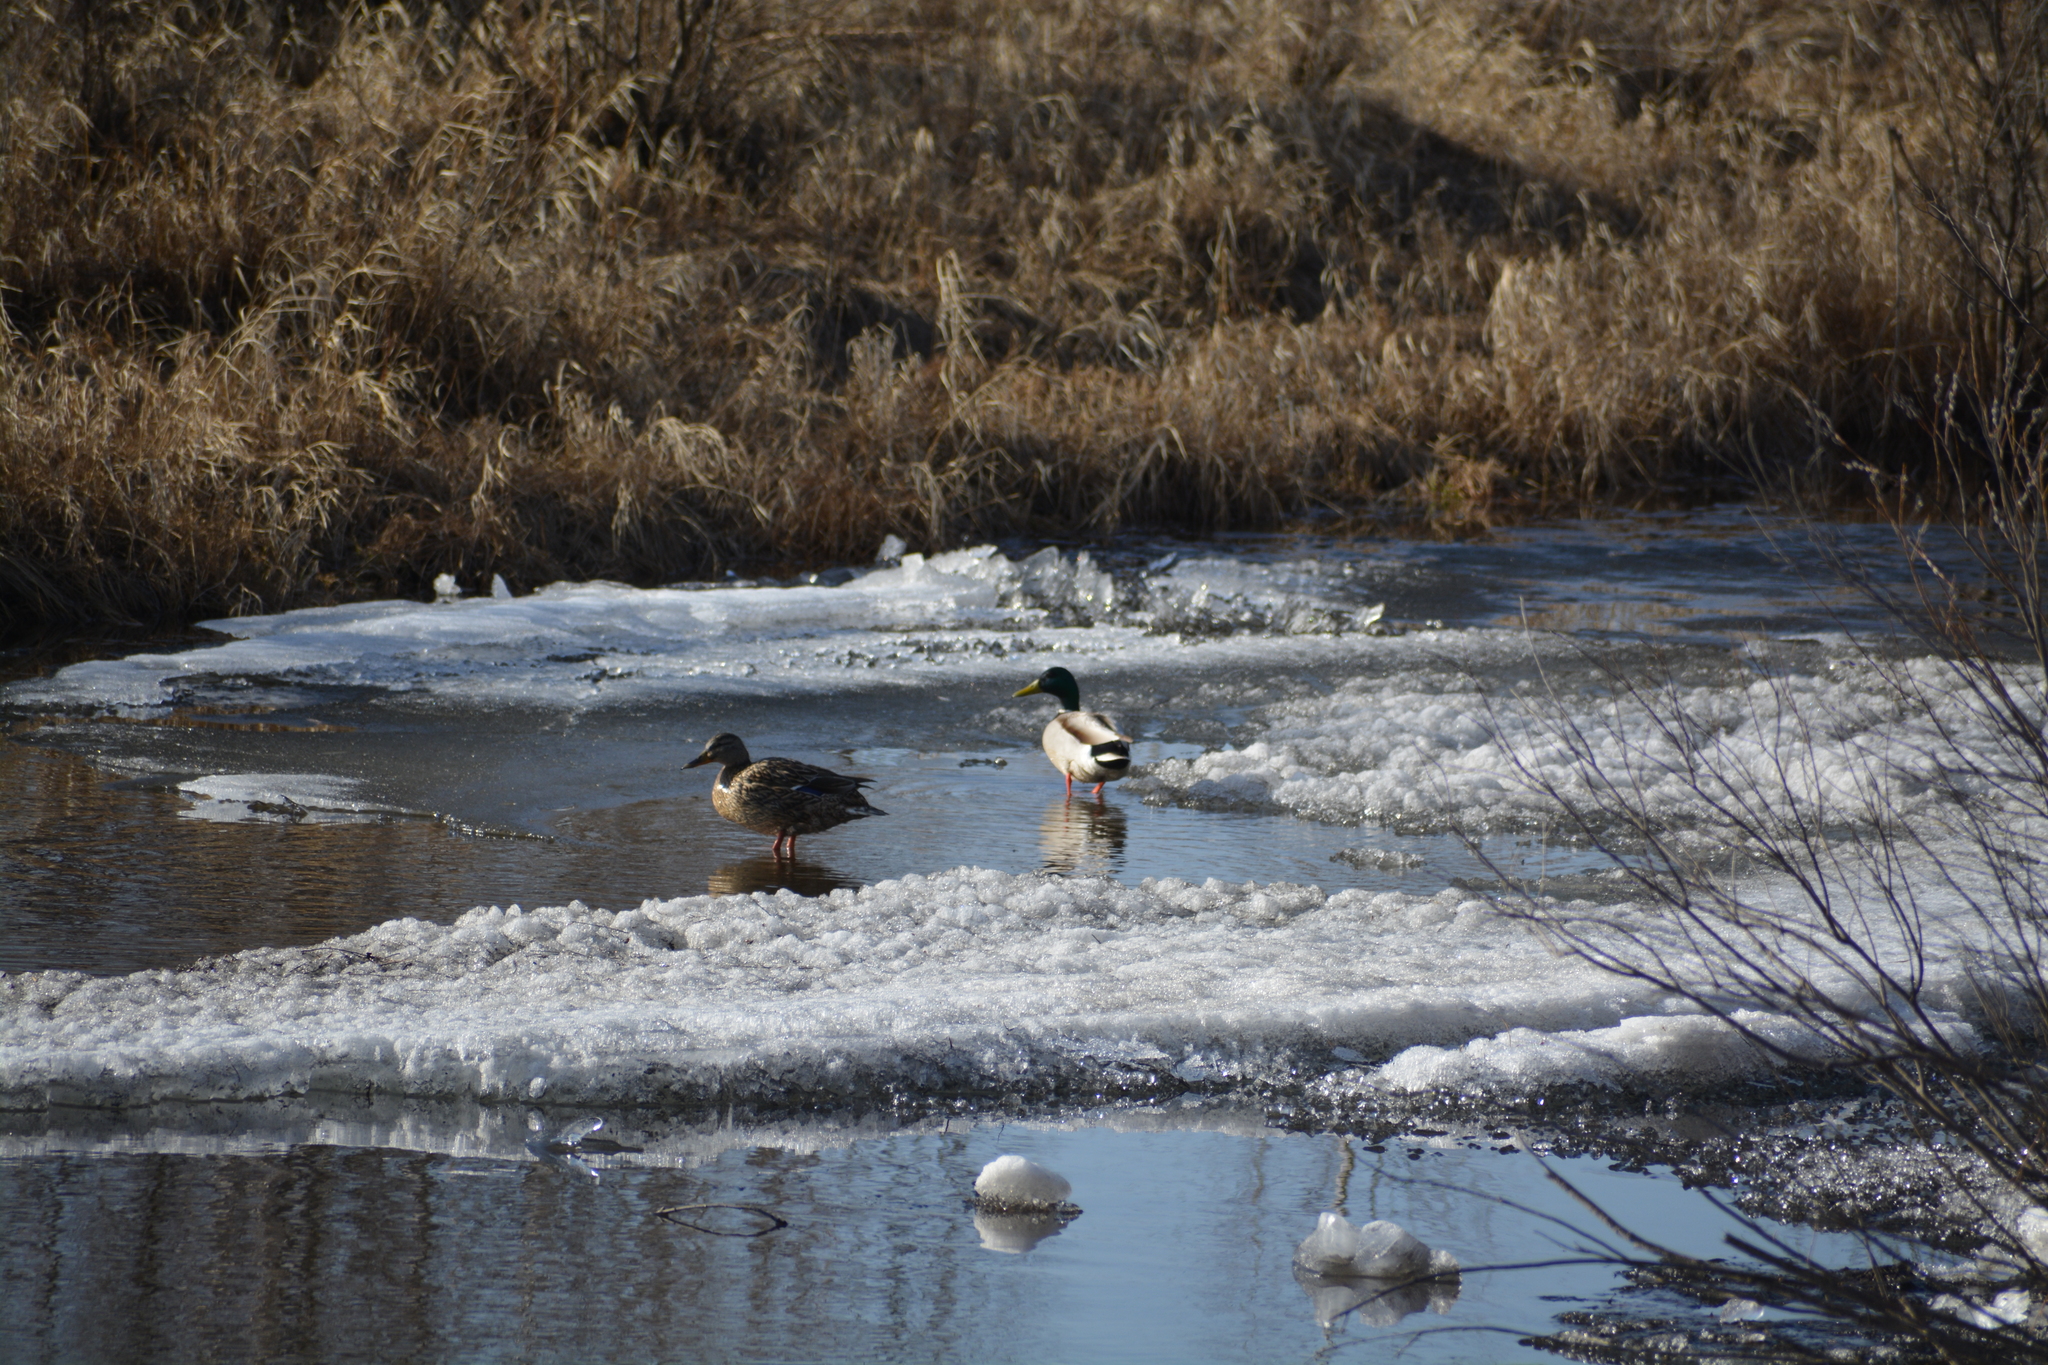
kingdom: Animalia
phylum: Chordata
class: Aves
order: Anseriformes
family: Anatidae
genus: Anas
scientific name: Anas platyrhynchos
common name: Mallard
